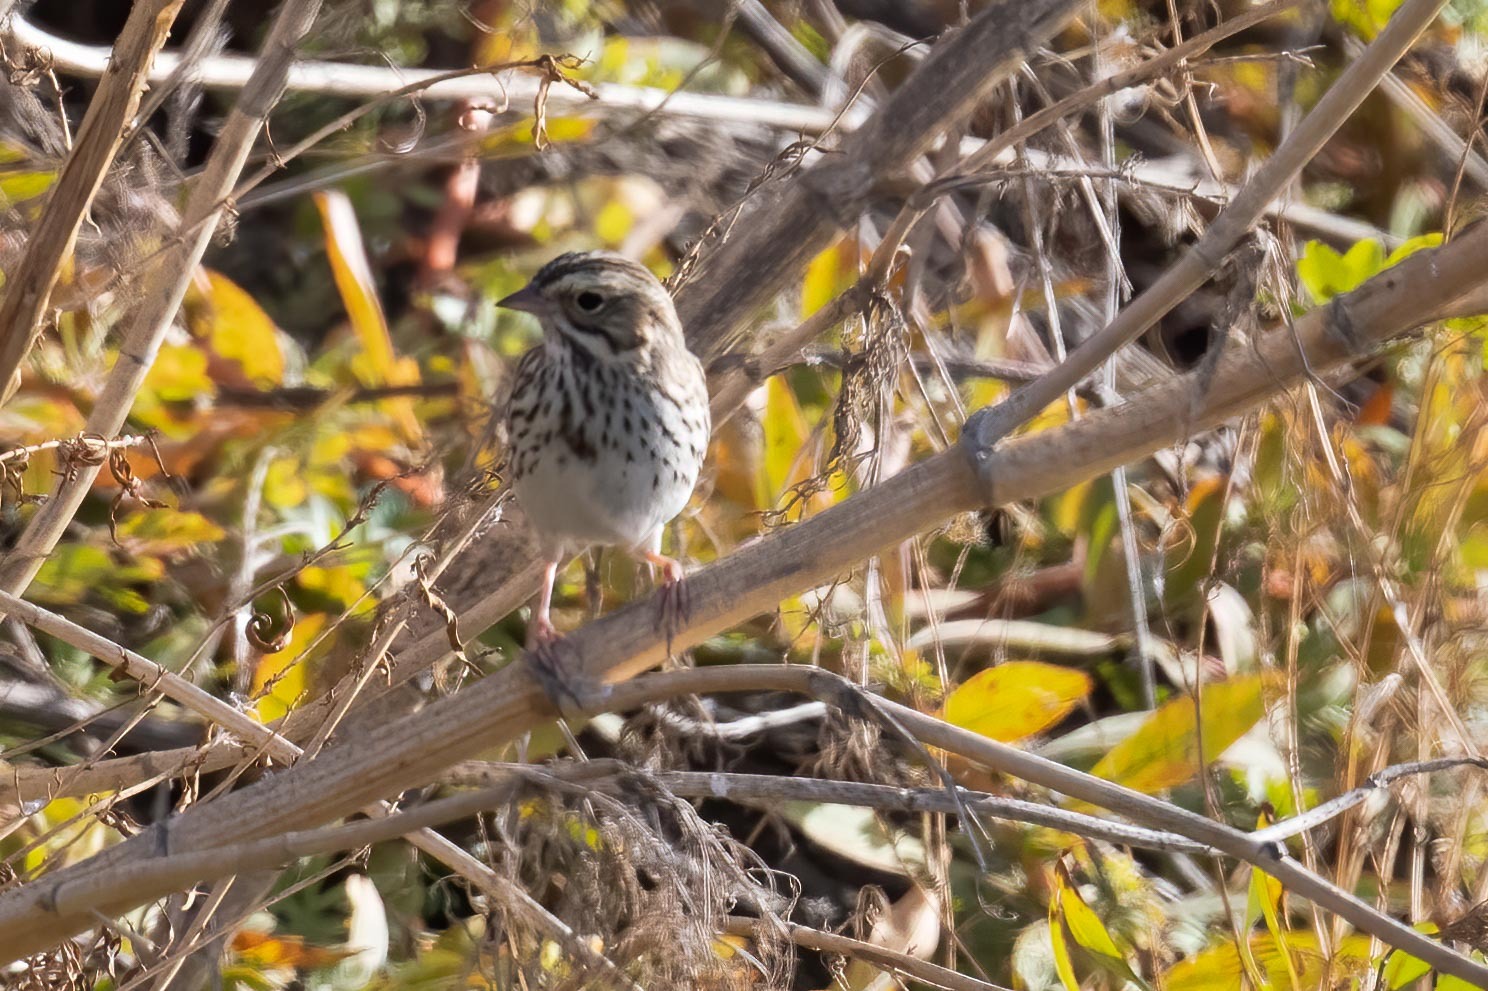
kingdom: Animalia
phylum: Chordata
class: Aves
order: Passeriformes
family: Passerellidae
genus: Passerculus
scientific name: Passerculus sandwichensis
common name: Savannah sparrow
